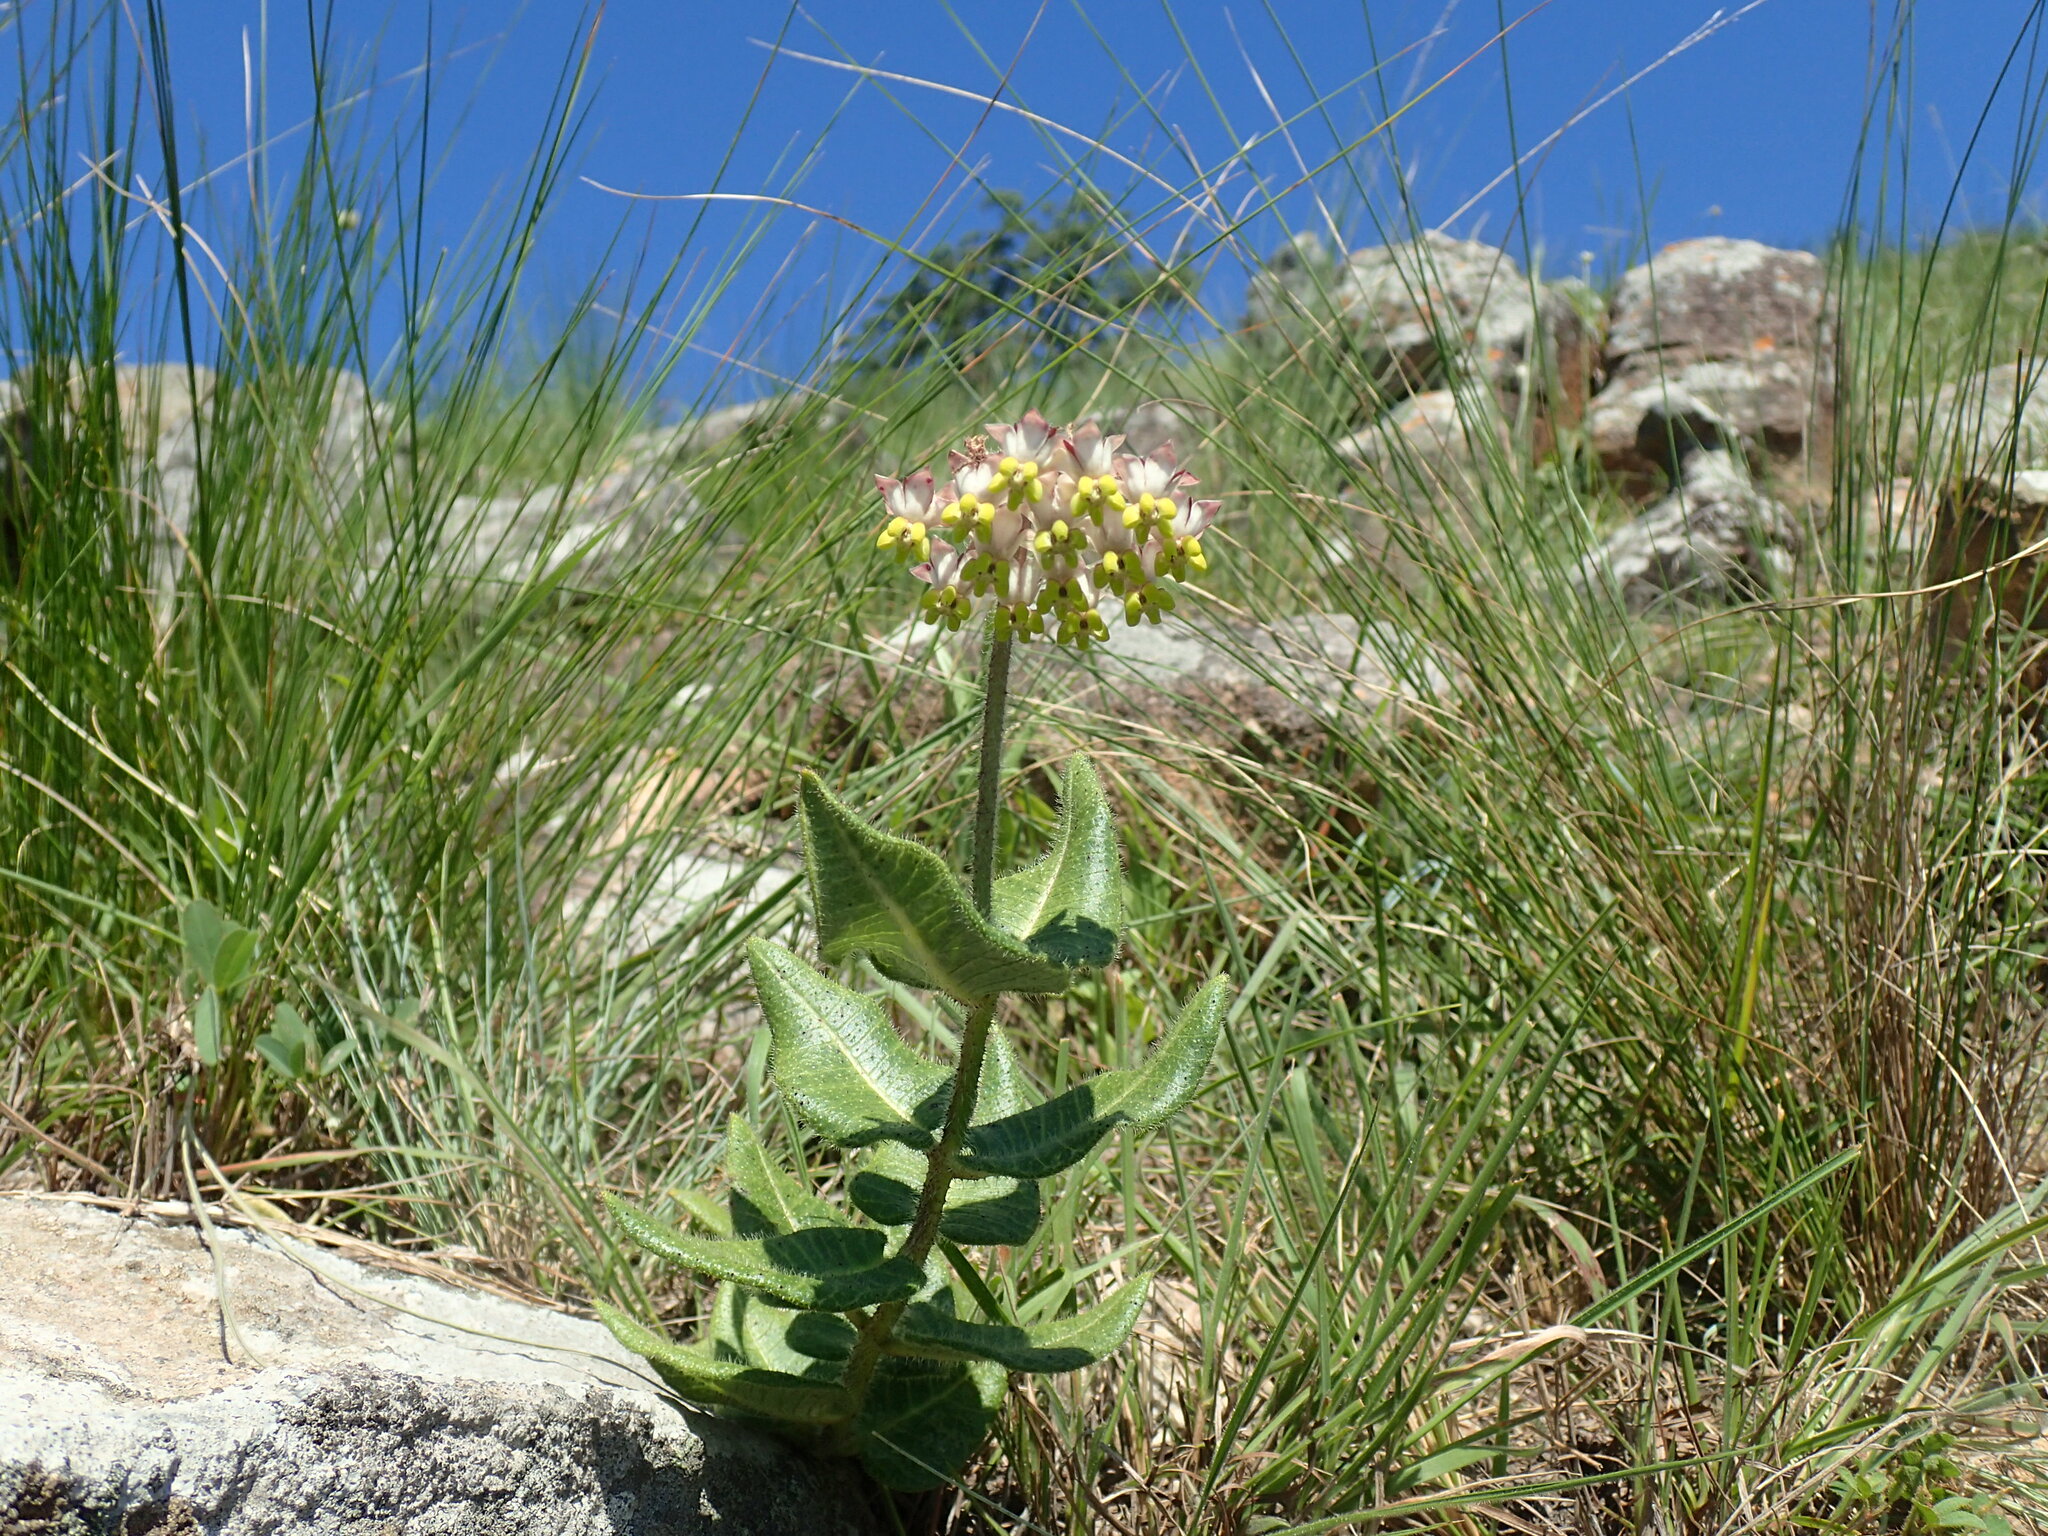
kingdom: Plantae
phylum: Tracheophyta
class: Magnoliopsida
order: Gentianales
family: Apocynaceae
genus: Asclepias
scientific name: Asclepias albens
